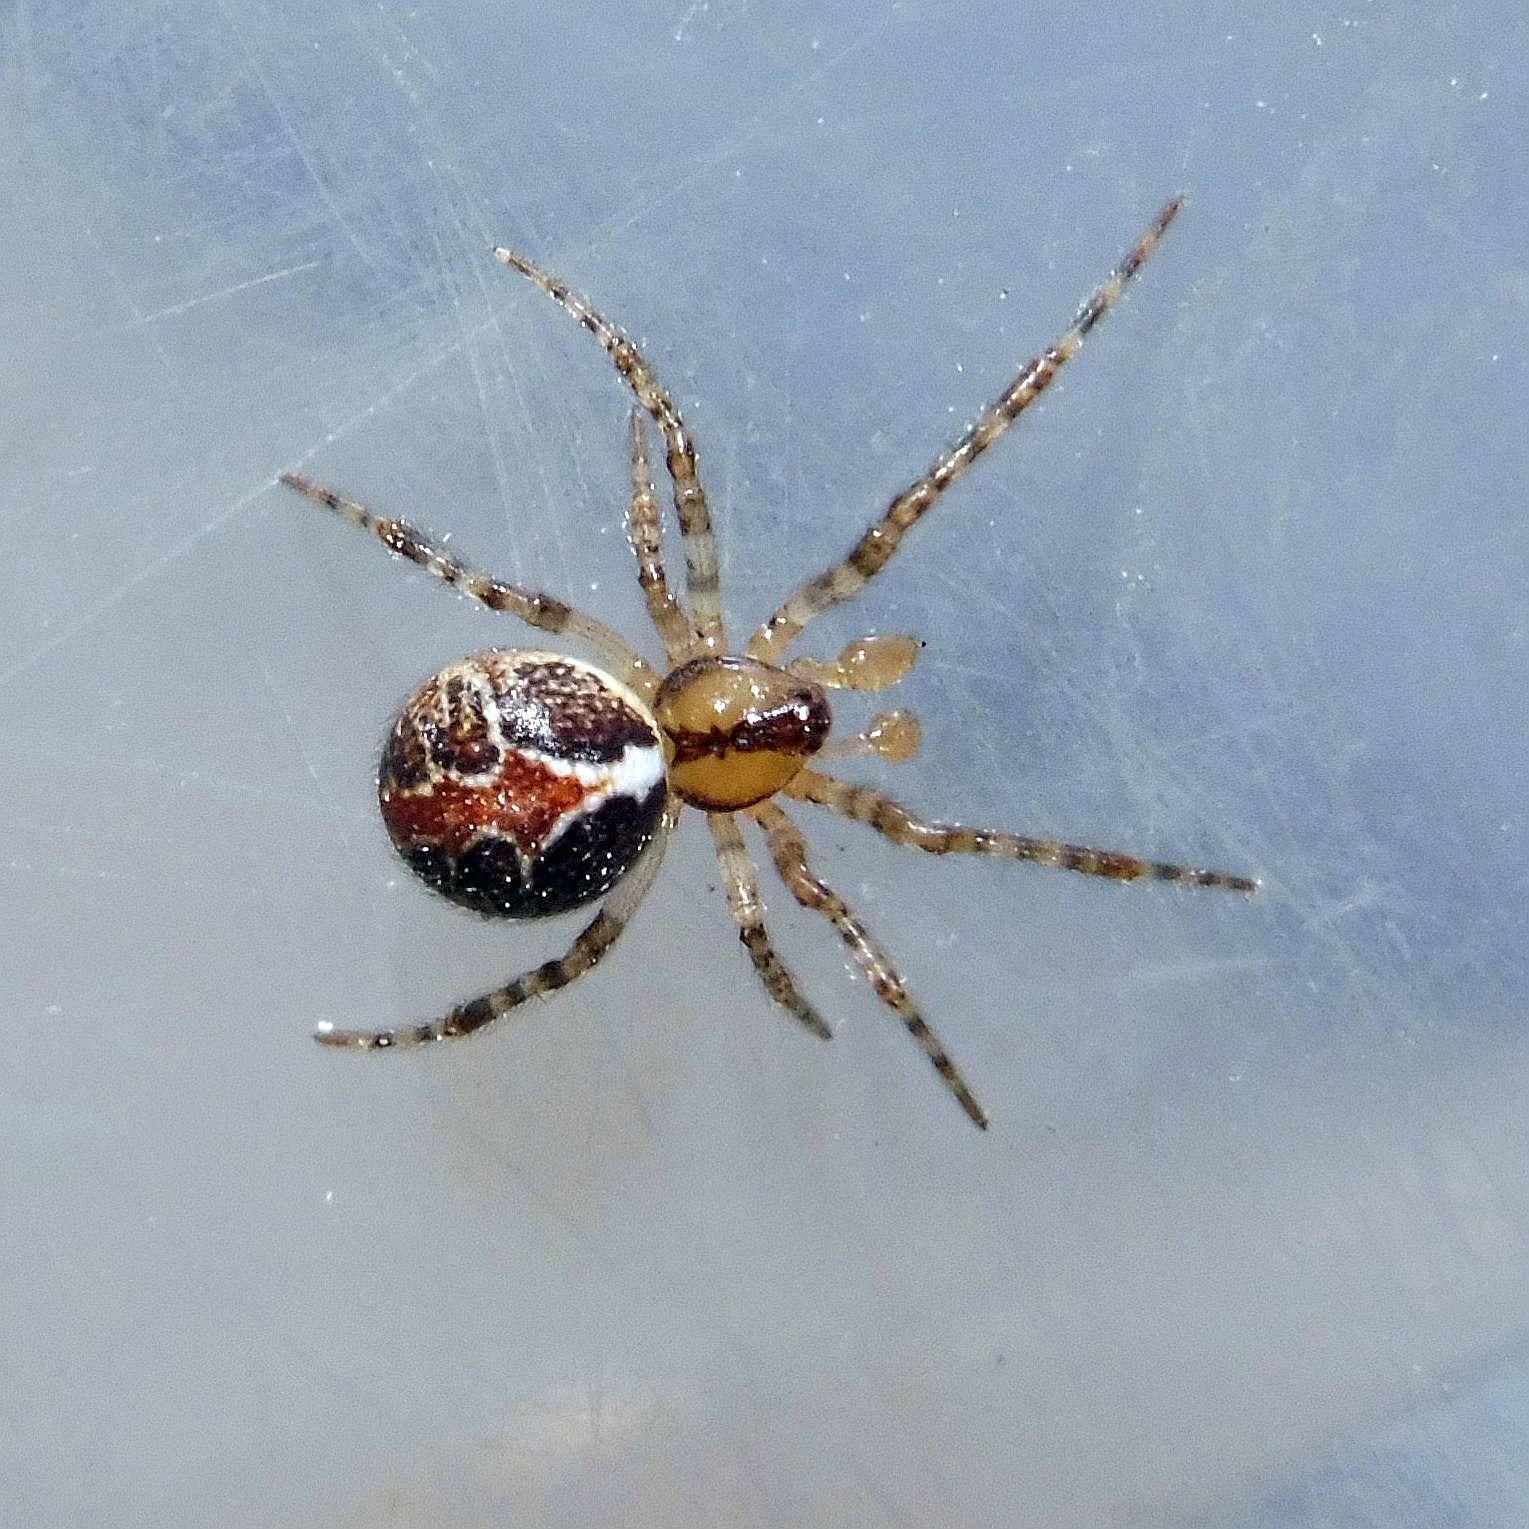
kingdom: Animalia
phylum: Arthropoda
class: Arachnida
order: Araneae
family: Theridiidae
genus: Theridion
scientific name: Theridion pictum
